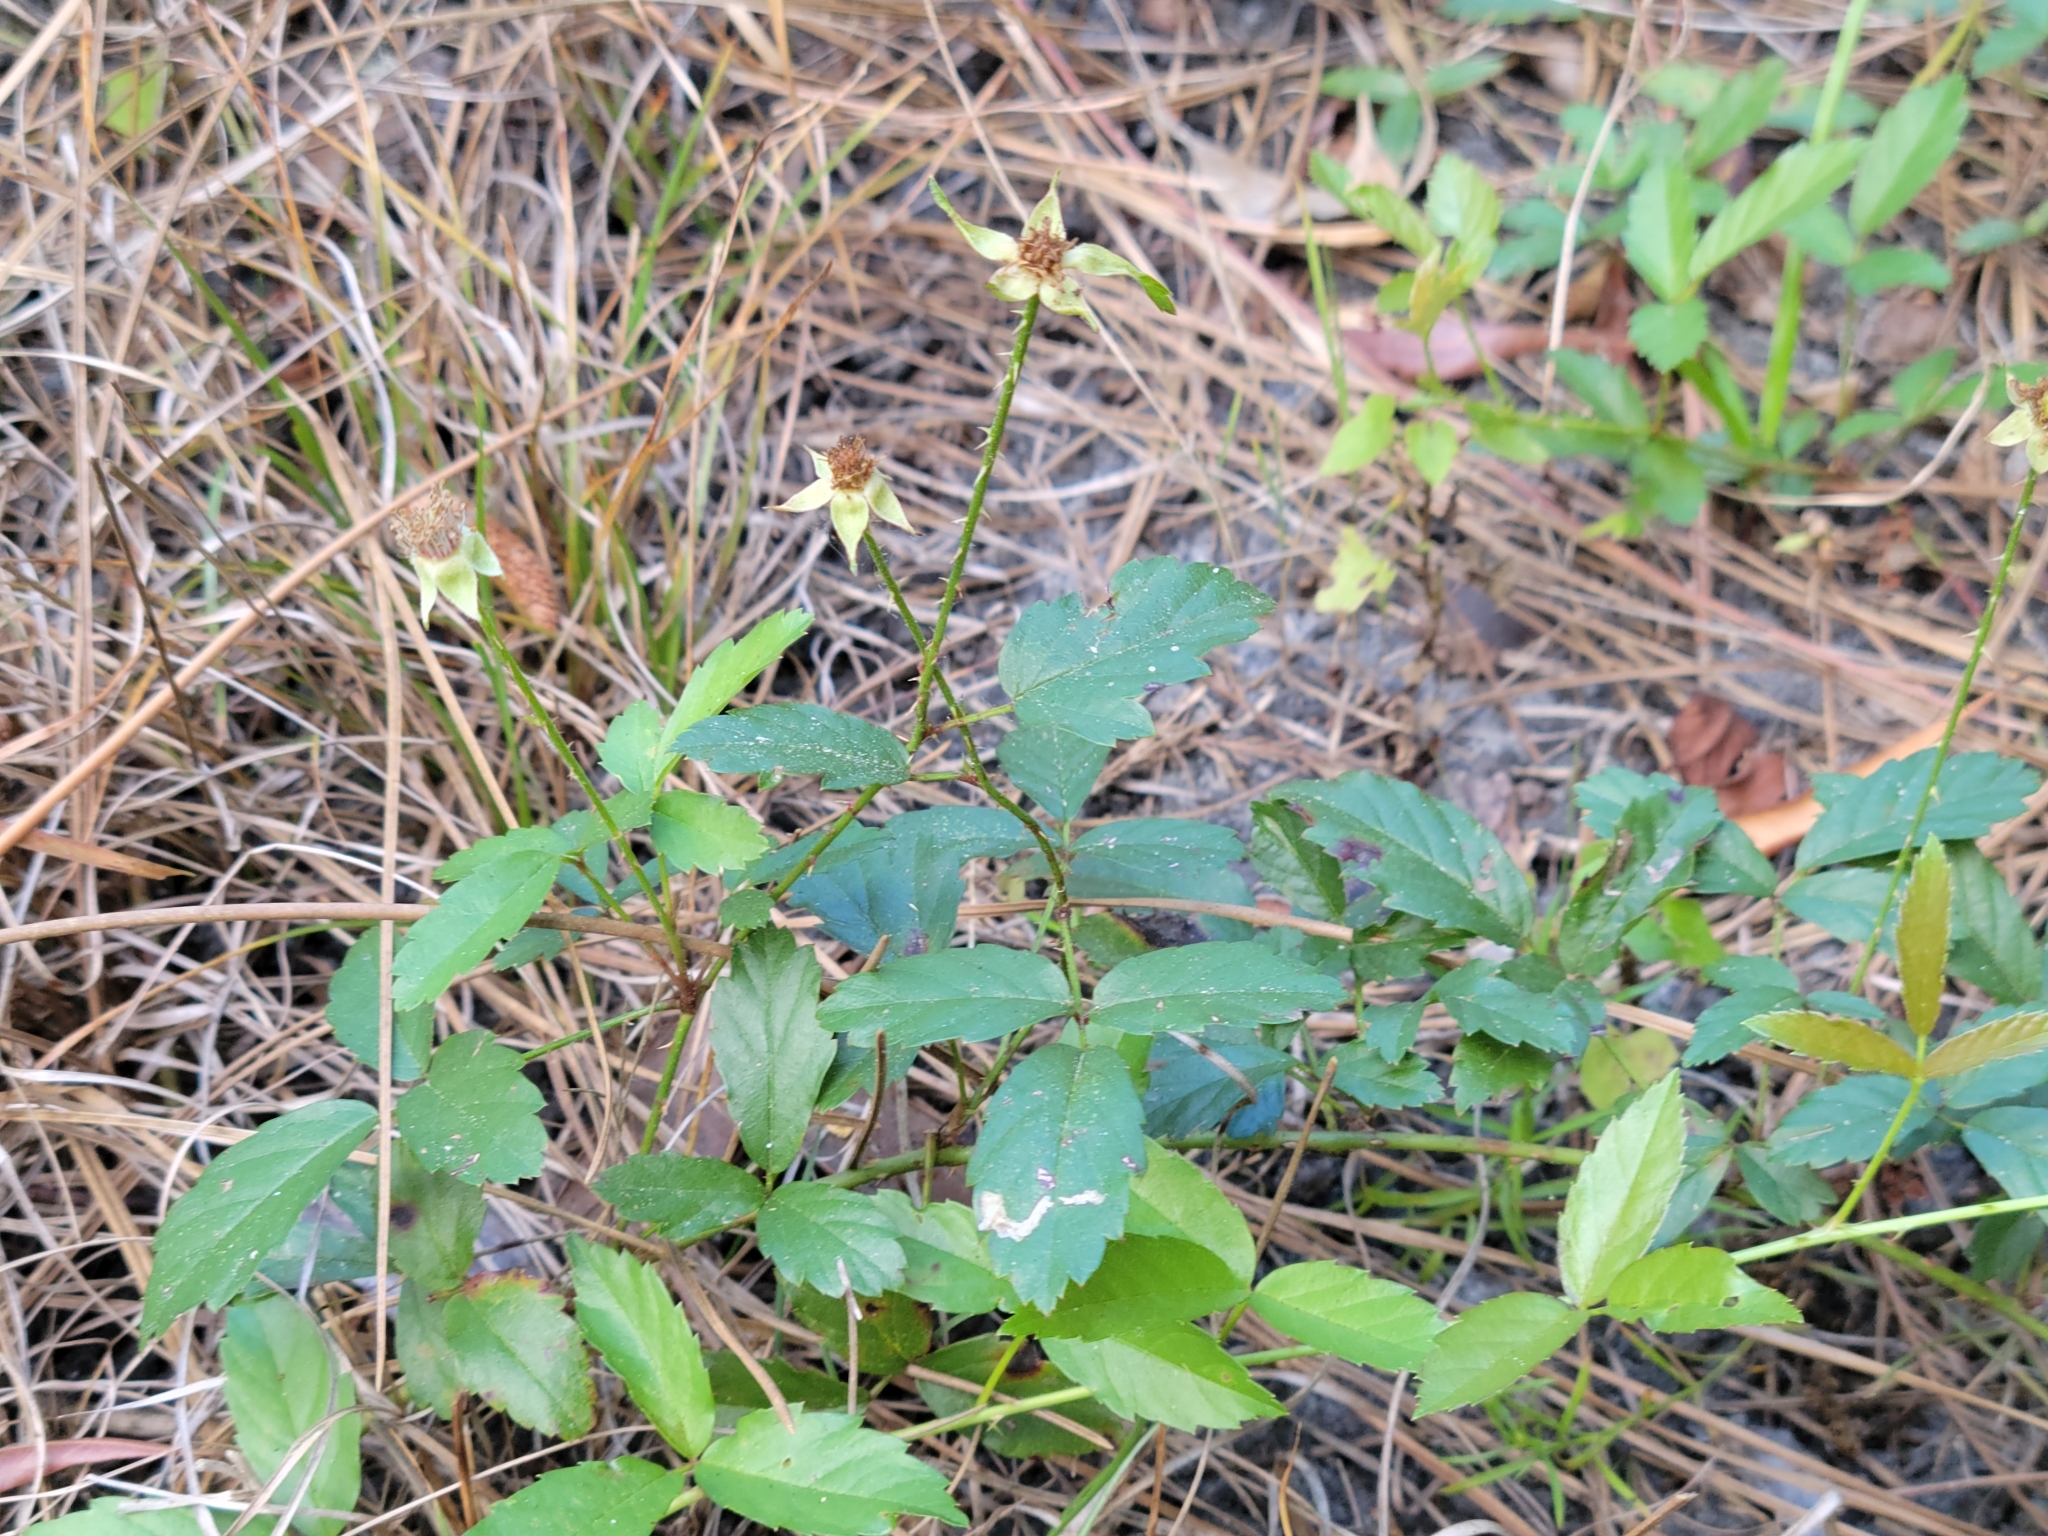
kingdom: Plantae
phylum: Tracheophyta
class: Magnoliopsida
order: Rosales
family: Rosaceae
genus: Rubus
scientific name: Rubus trivialis
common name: Southern dewberry
